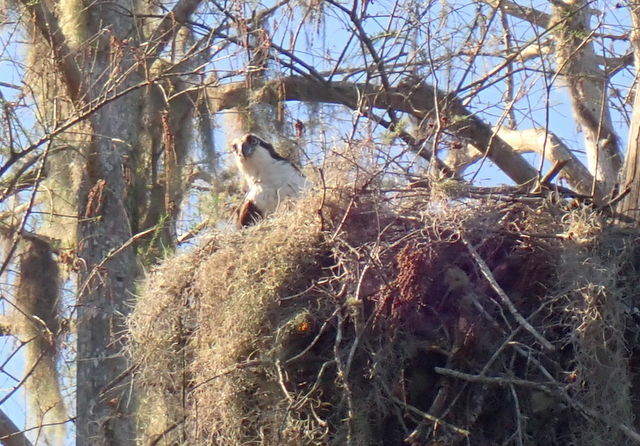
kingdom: Animalia
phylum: Chordata
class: Aves
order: Accipitriformes
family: Pandionidae
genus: Pandion
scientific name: Pandion haliaetus
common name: Osprey
